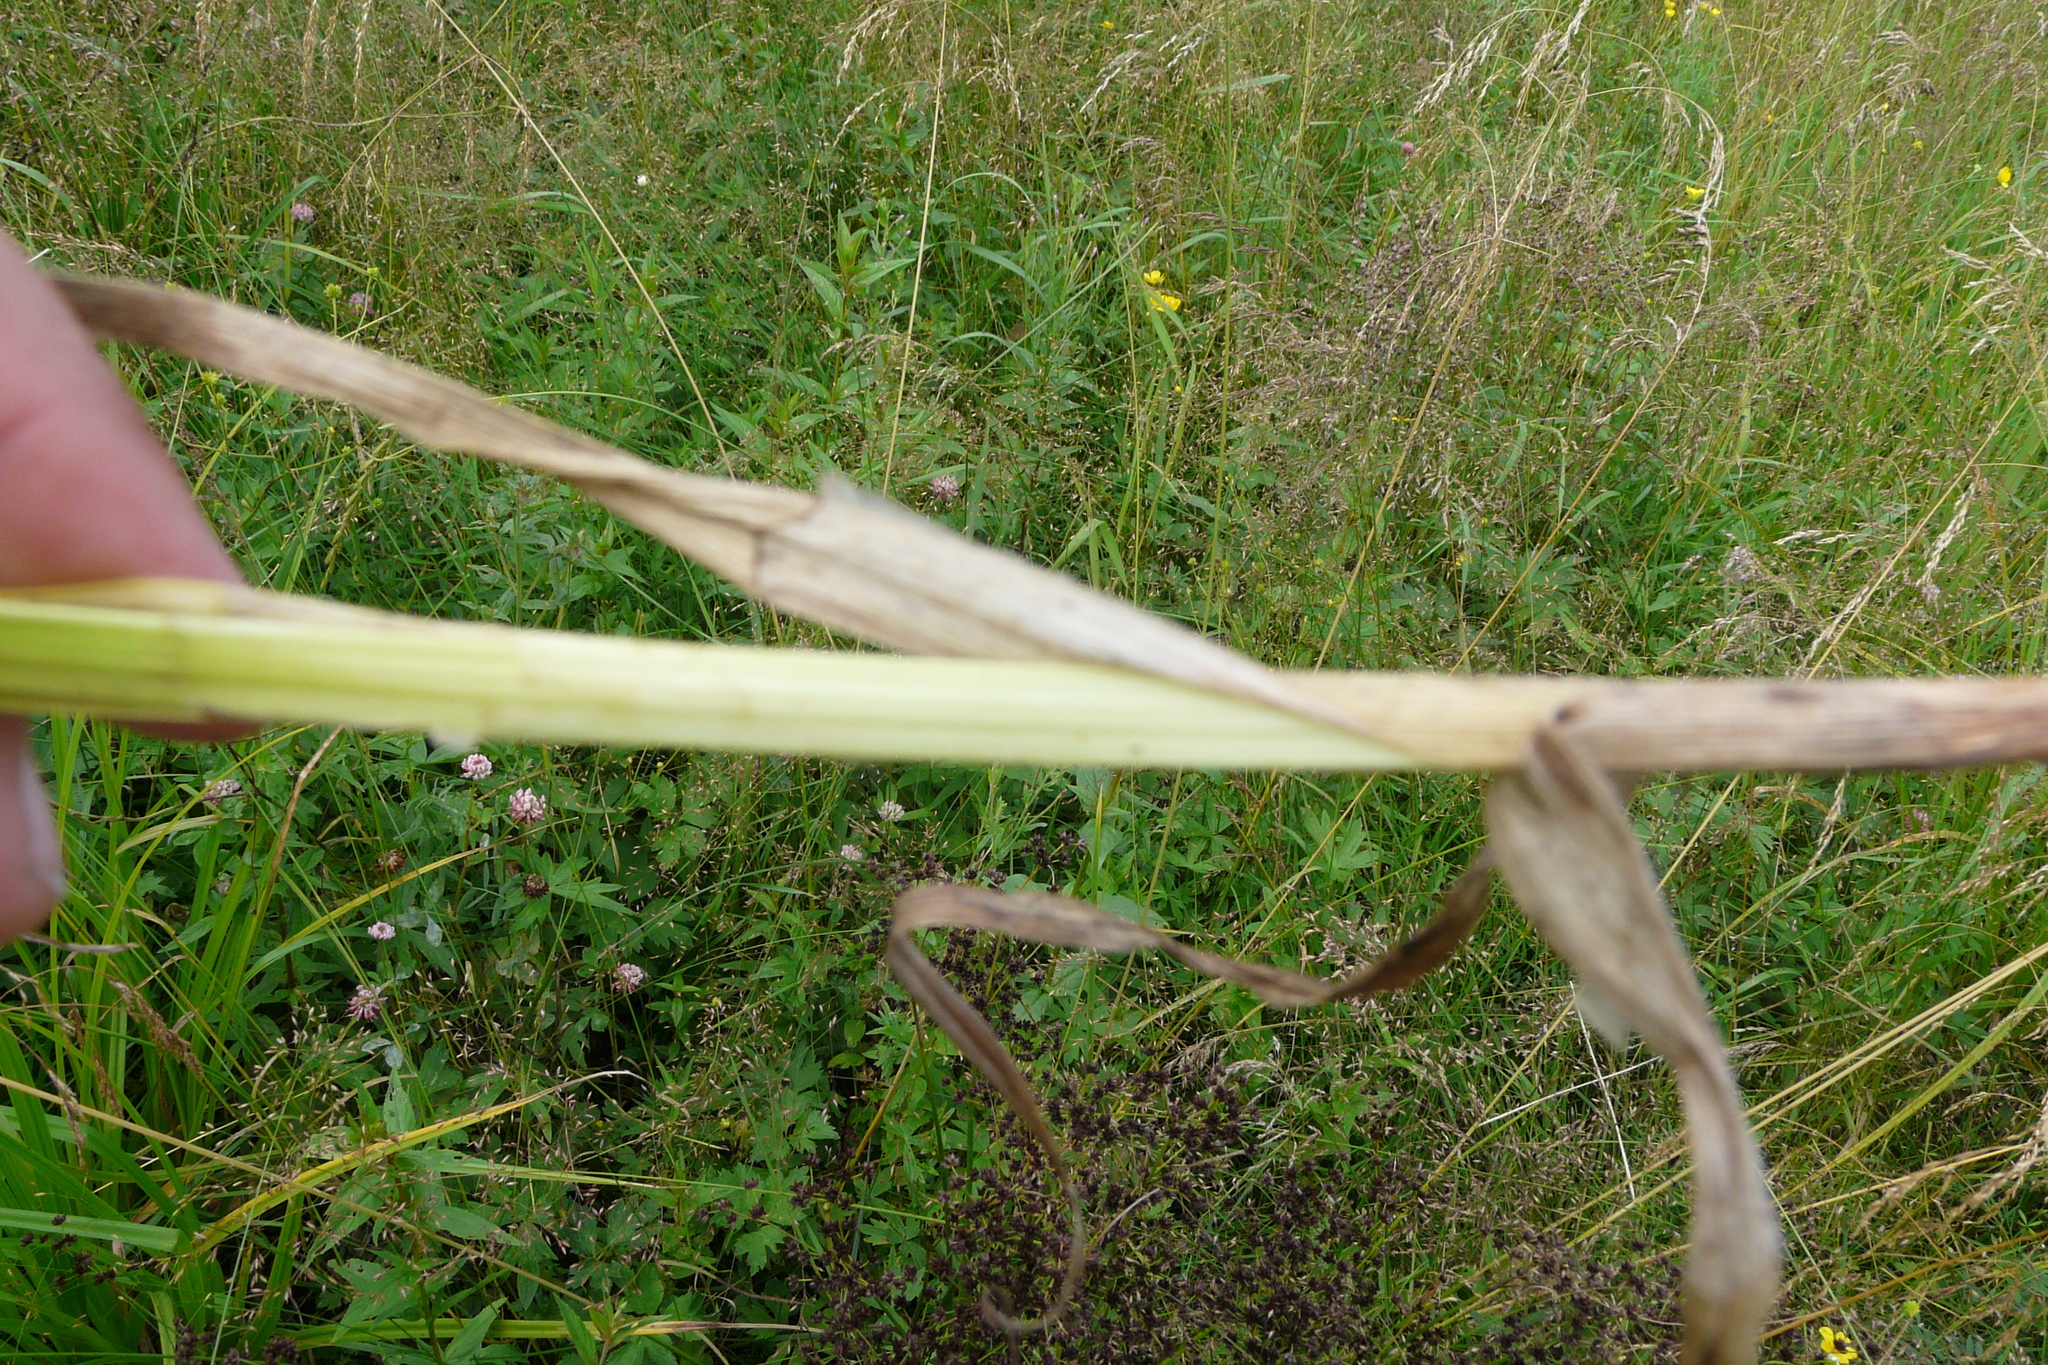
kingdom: Plantae
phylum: Tracheophyta
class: Liliopsida
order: Poales
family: Cyperaceae
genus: Carex
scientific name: Carex vulpina
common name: True fox-sedge
